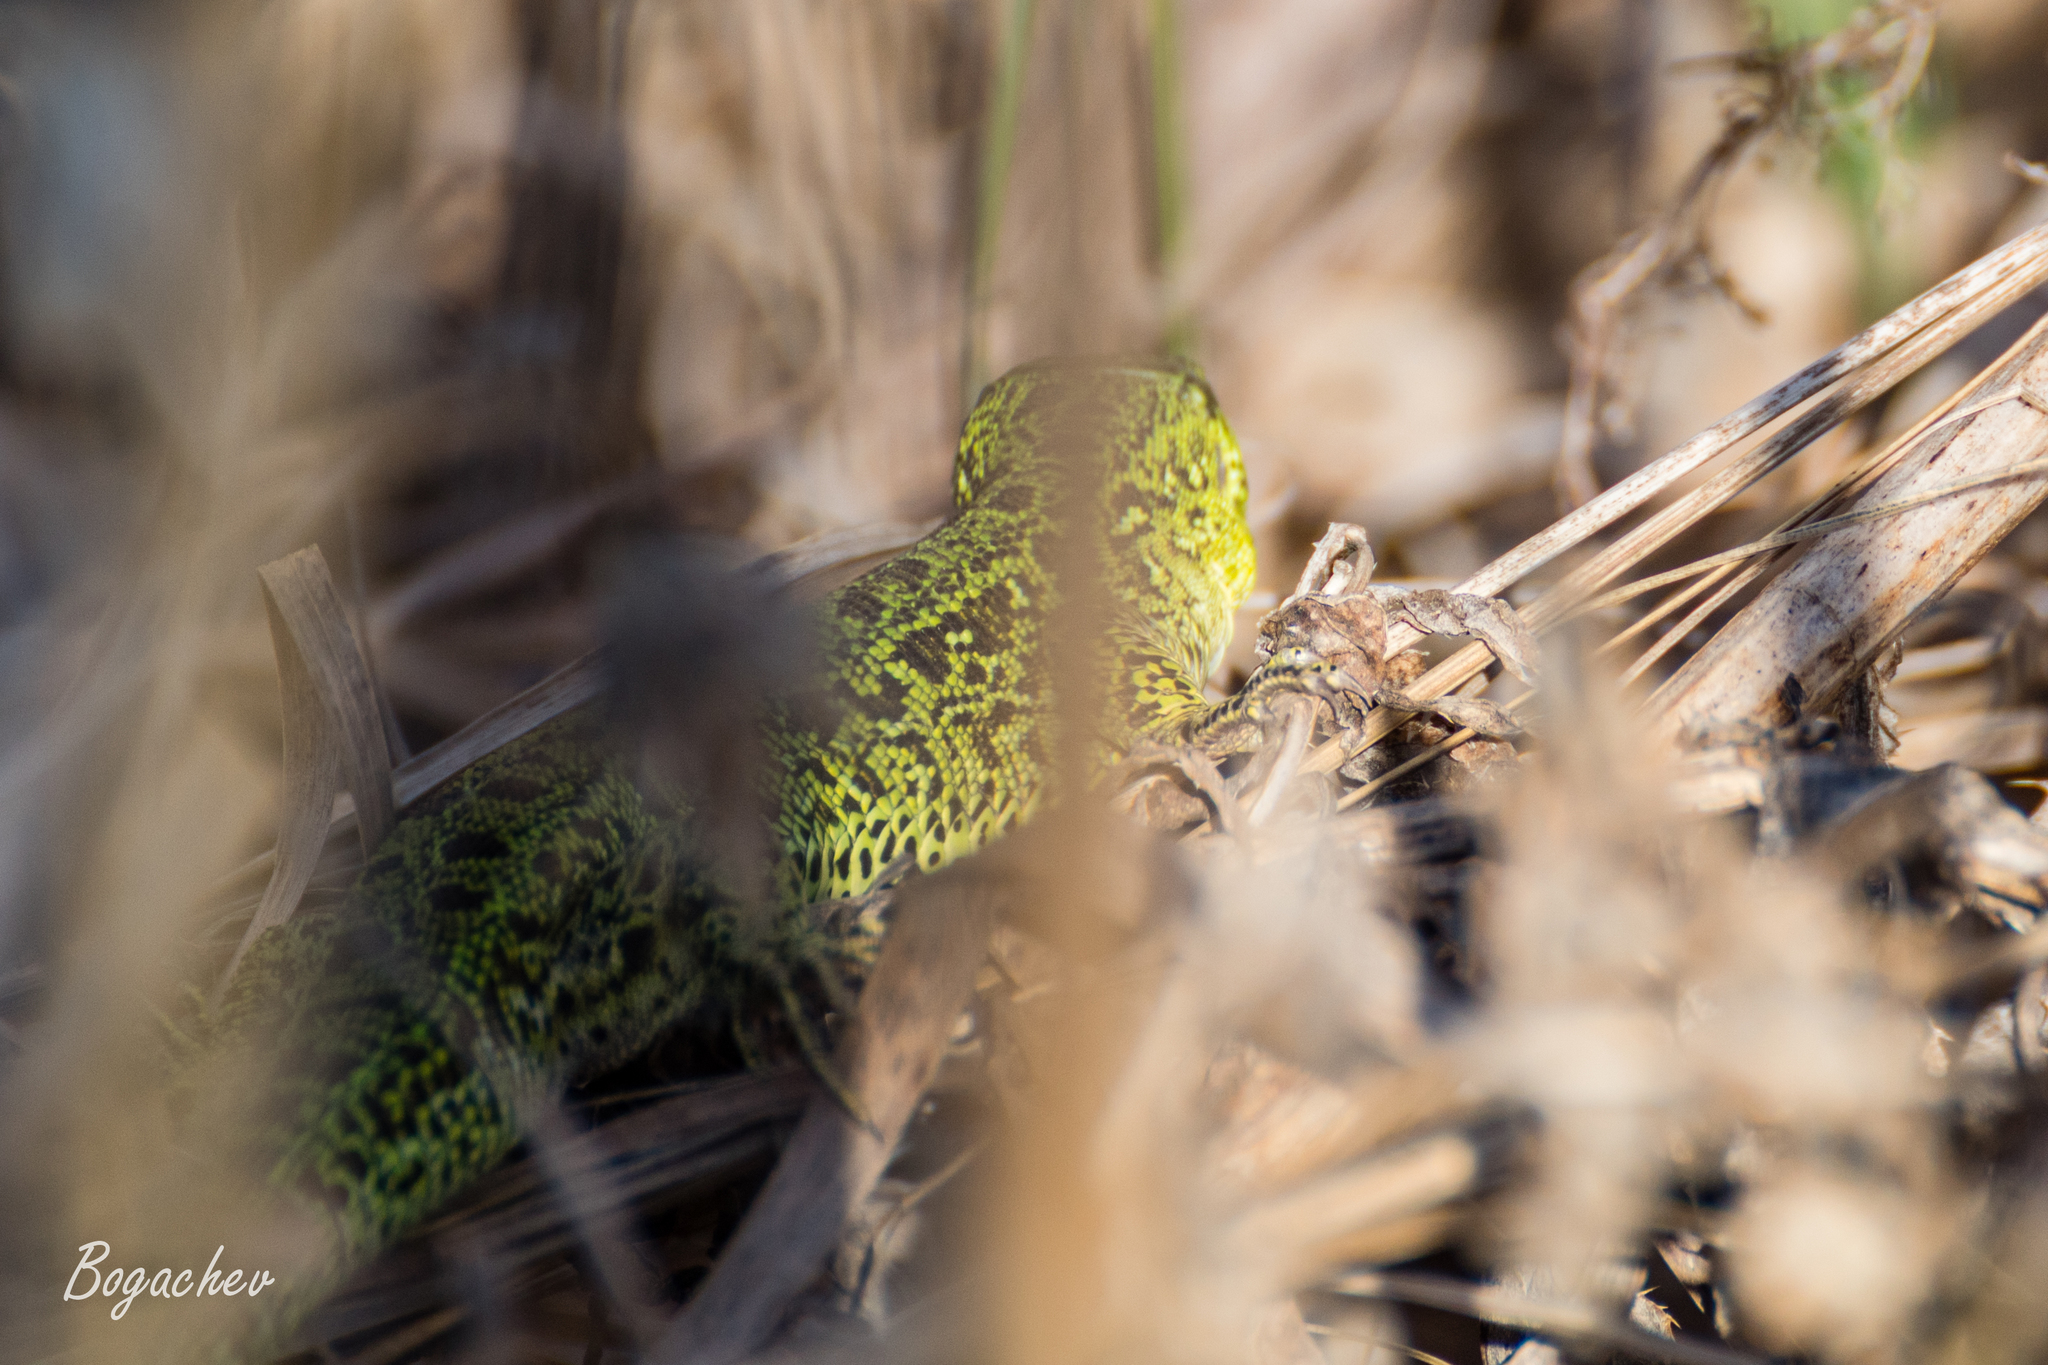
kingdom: Animalia
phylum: Chordata
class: Squamata
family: Lacertidae
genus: Lacerta
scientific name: Lacerta agilis
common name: Sand lizard
